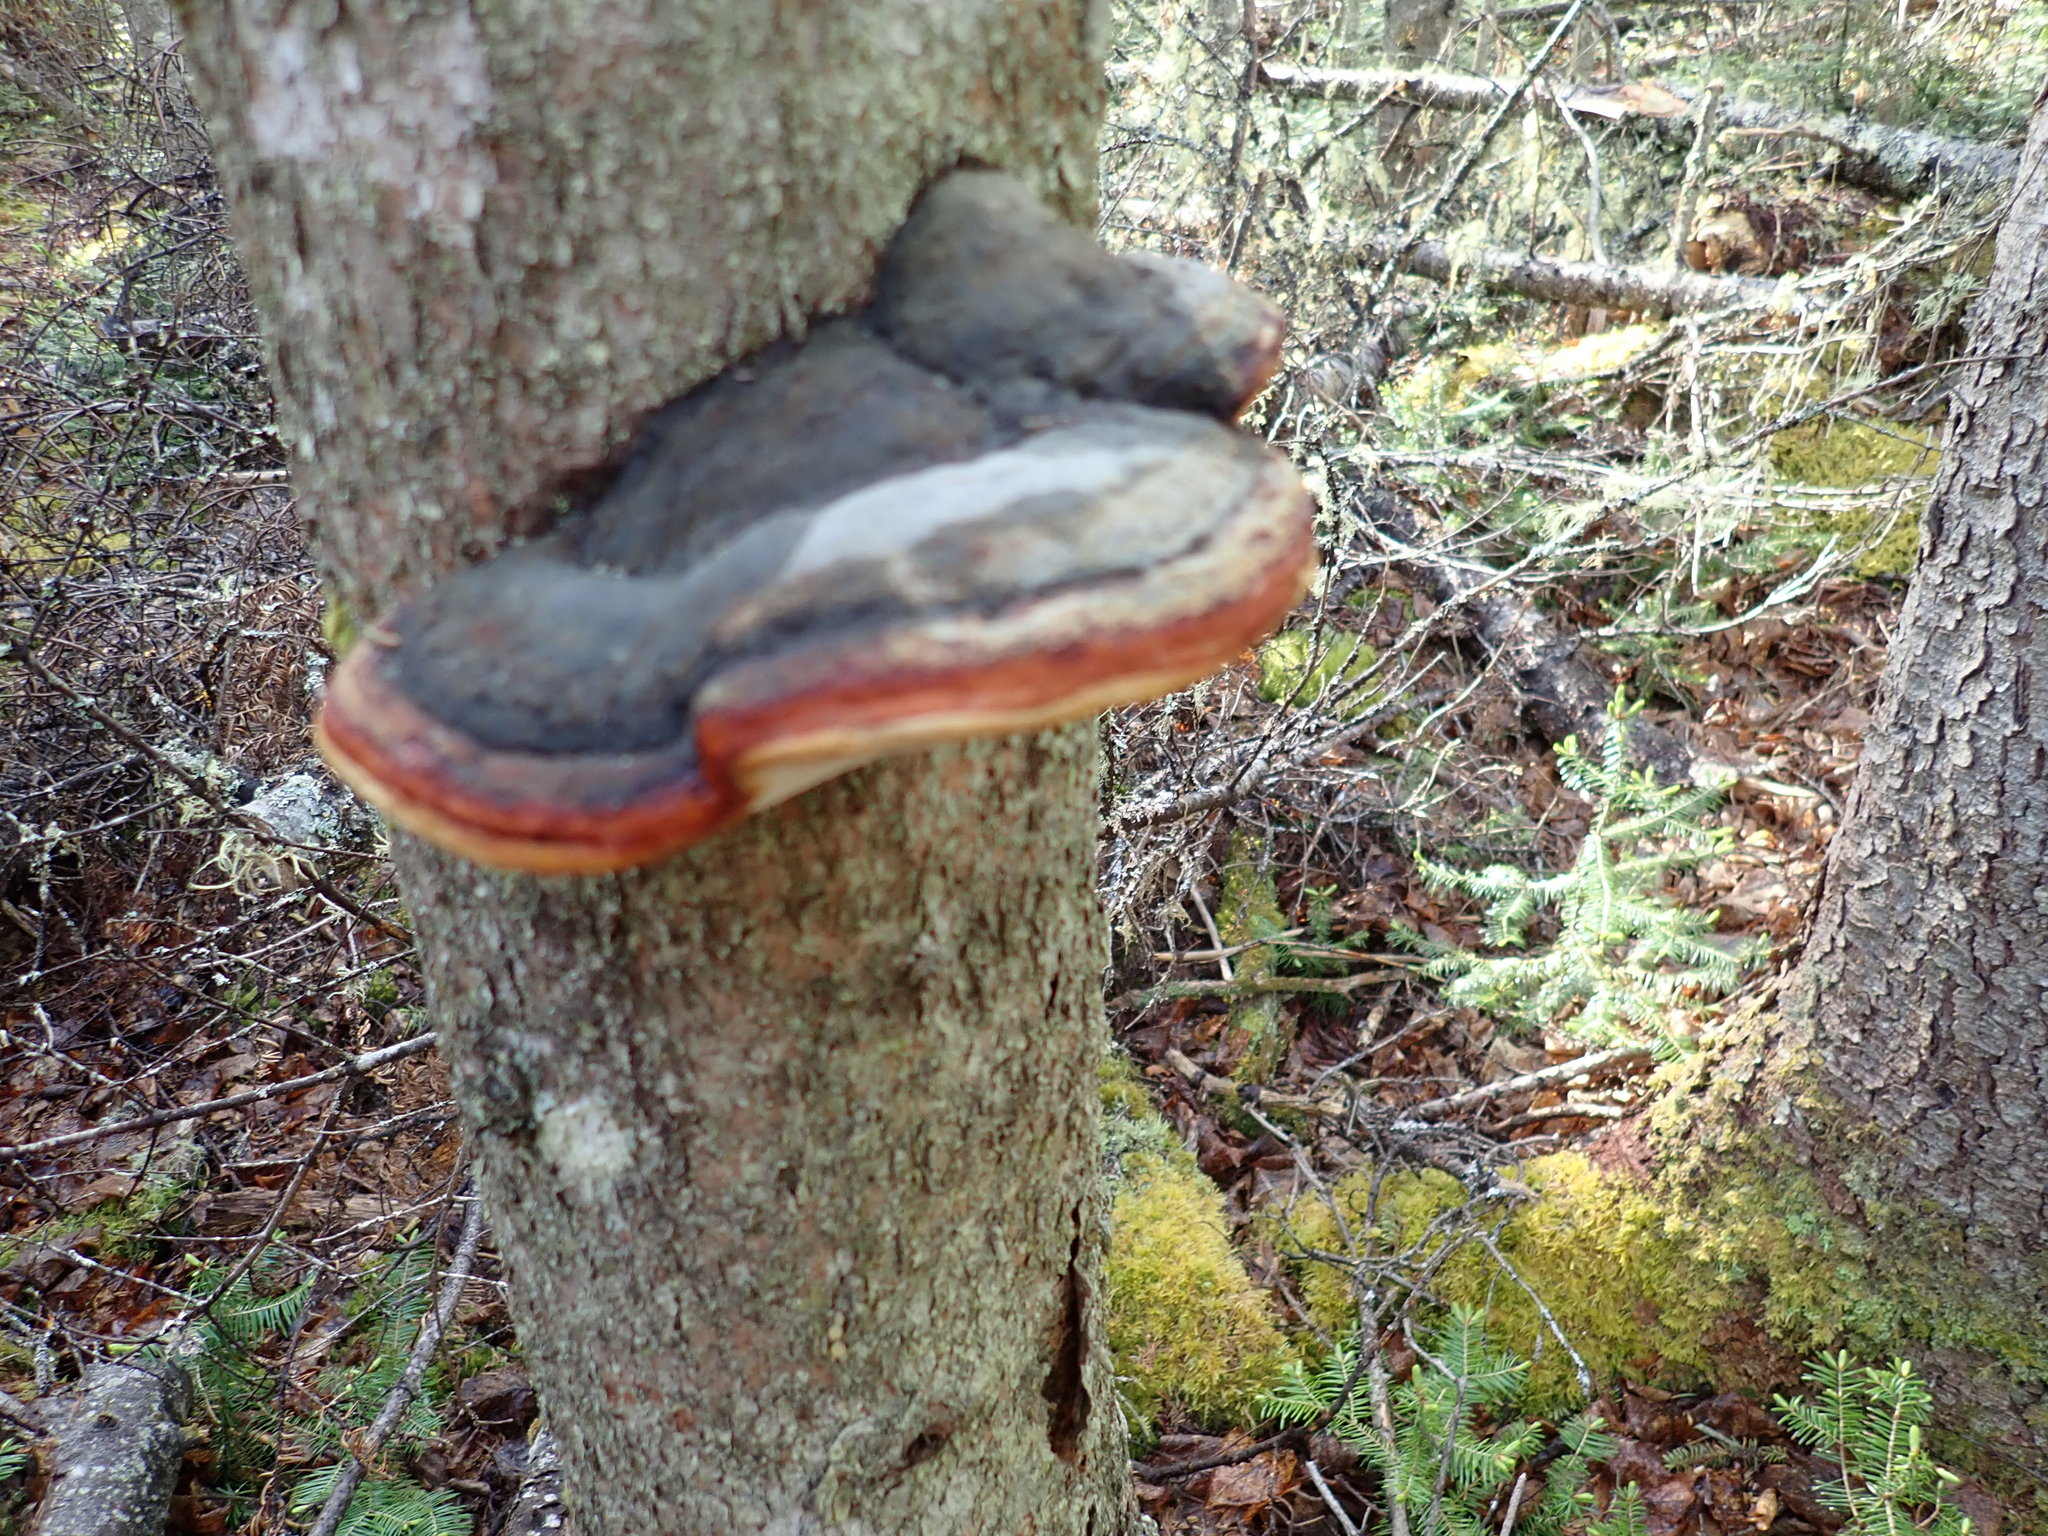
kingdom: Fungi
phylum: Basidiomycota
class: Agaricomycetes
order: Polyporales
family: Fomitopsidaceae
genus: Fomitopsis
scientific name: Fomitopsis mounceae
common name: Northern red belt
